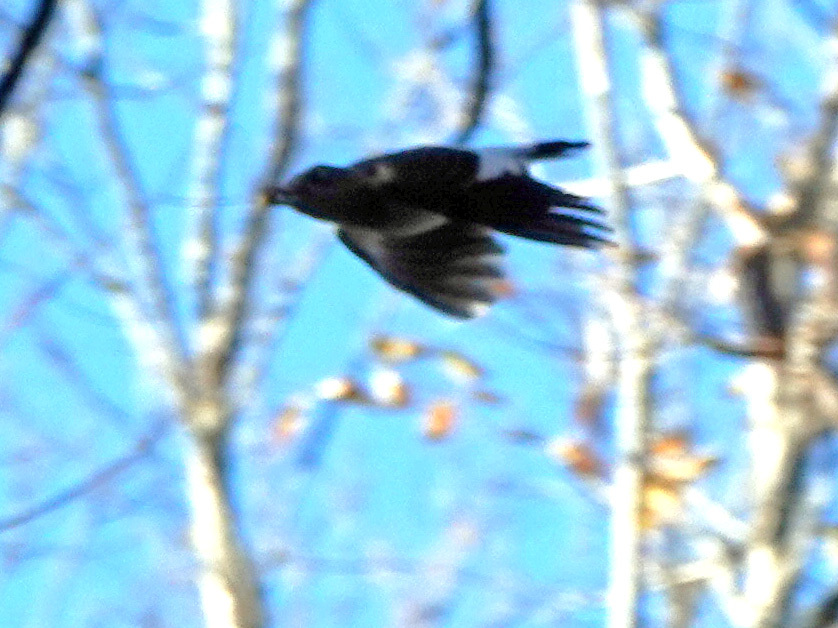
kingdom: Animalia
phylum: Chordata
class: Aves
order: Piciformes
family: Picidae
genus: Melanerpes
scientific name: Melanerpes erythrocephalus
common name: Red-headed woodpecker
